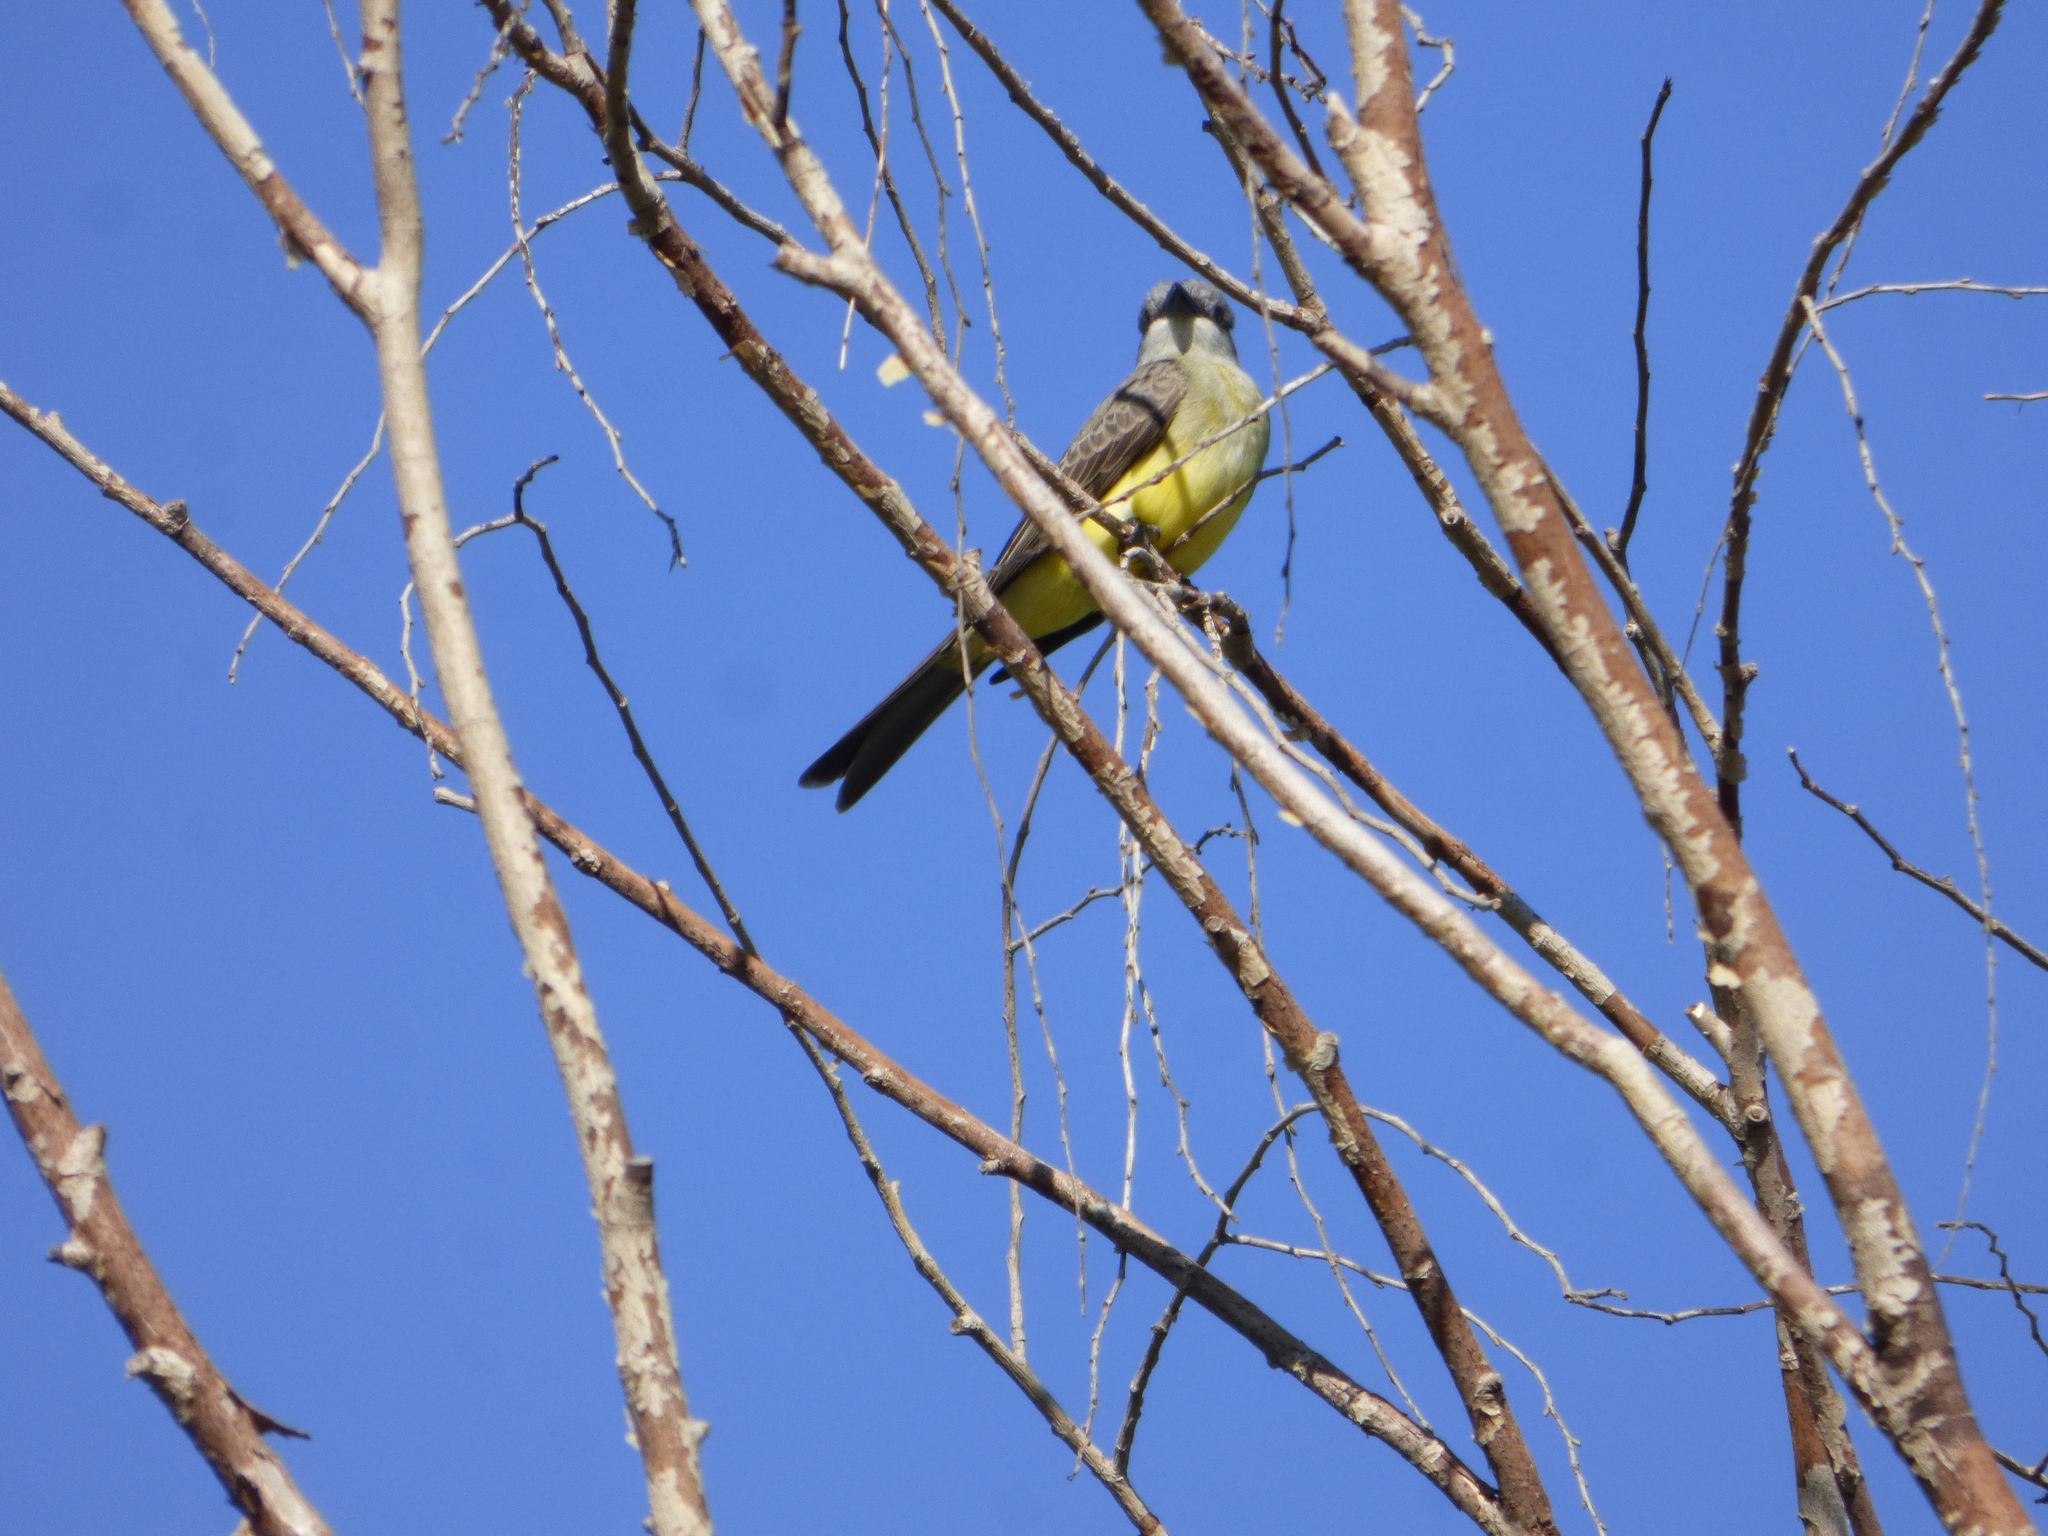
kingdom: Animalia
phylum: Chordata
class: Aves
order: Passeriformes
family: Tyrannidae
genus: Tyrannus
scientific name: Tyrannus melancholicus
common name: Tropical kingbird
